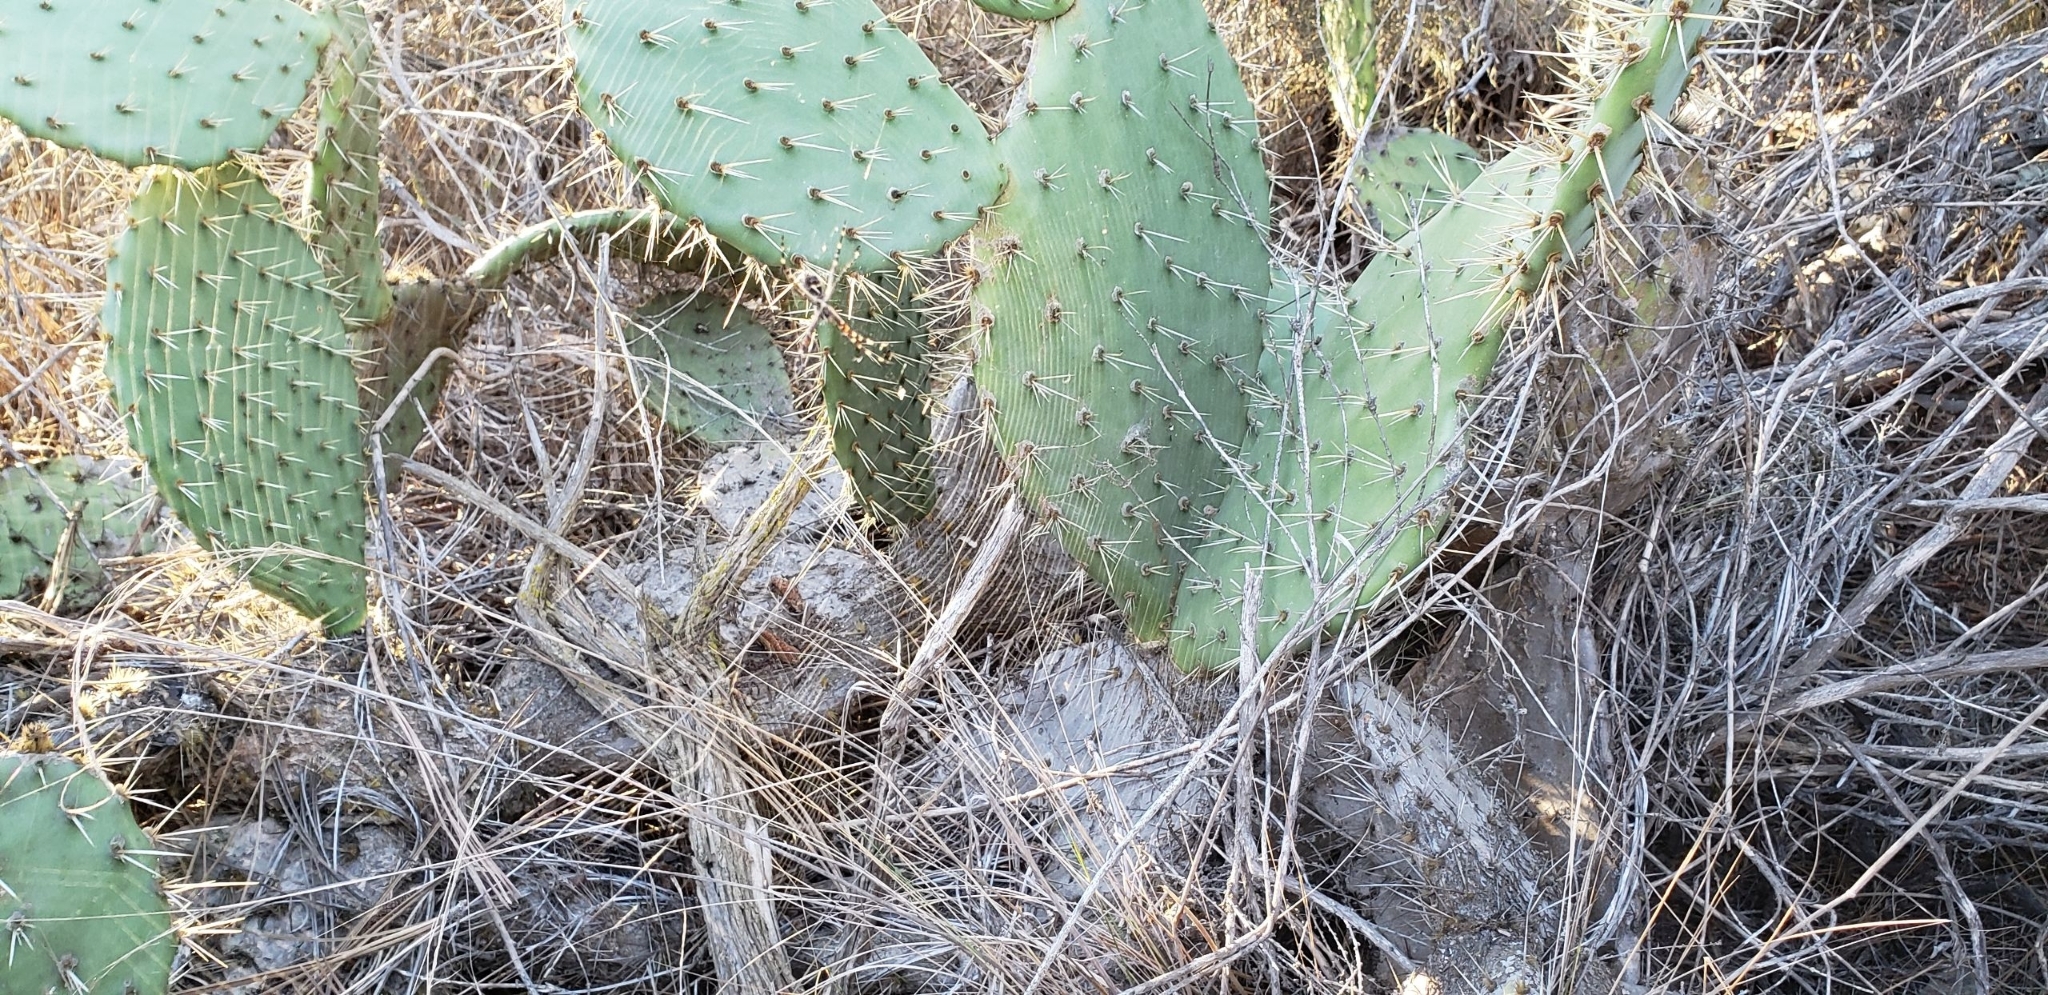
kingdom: Animalia
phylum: Arthropoda
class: Arachnida
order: Araneae
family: Araneidae
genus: Argiope
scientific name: Argiope argentata
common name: Orb weavers
